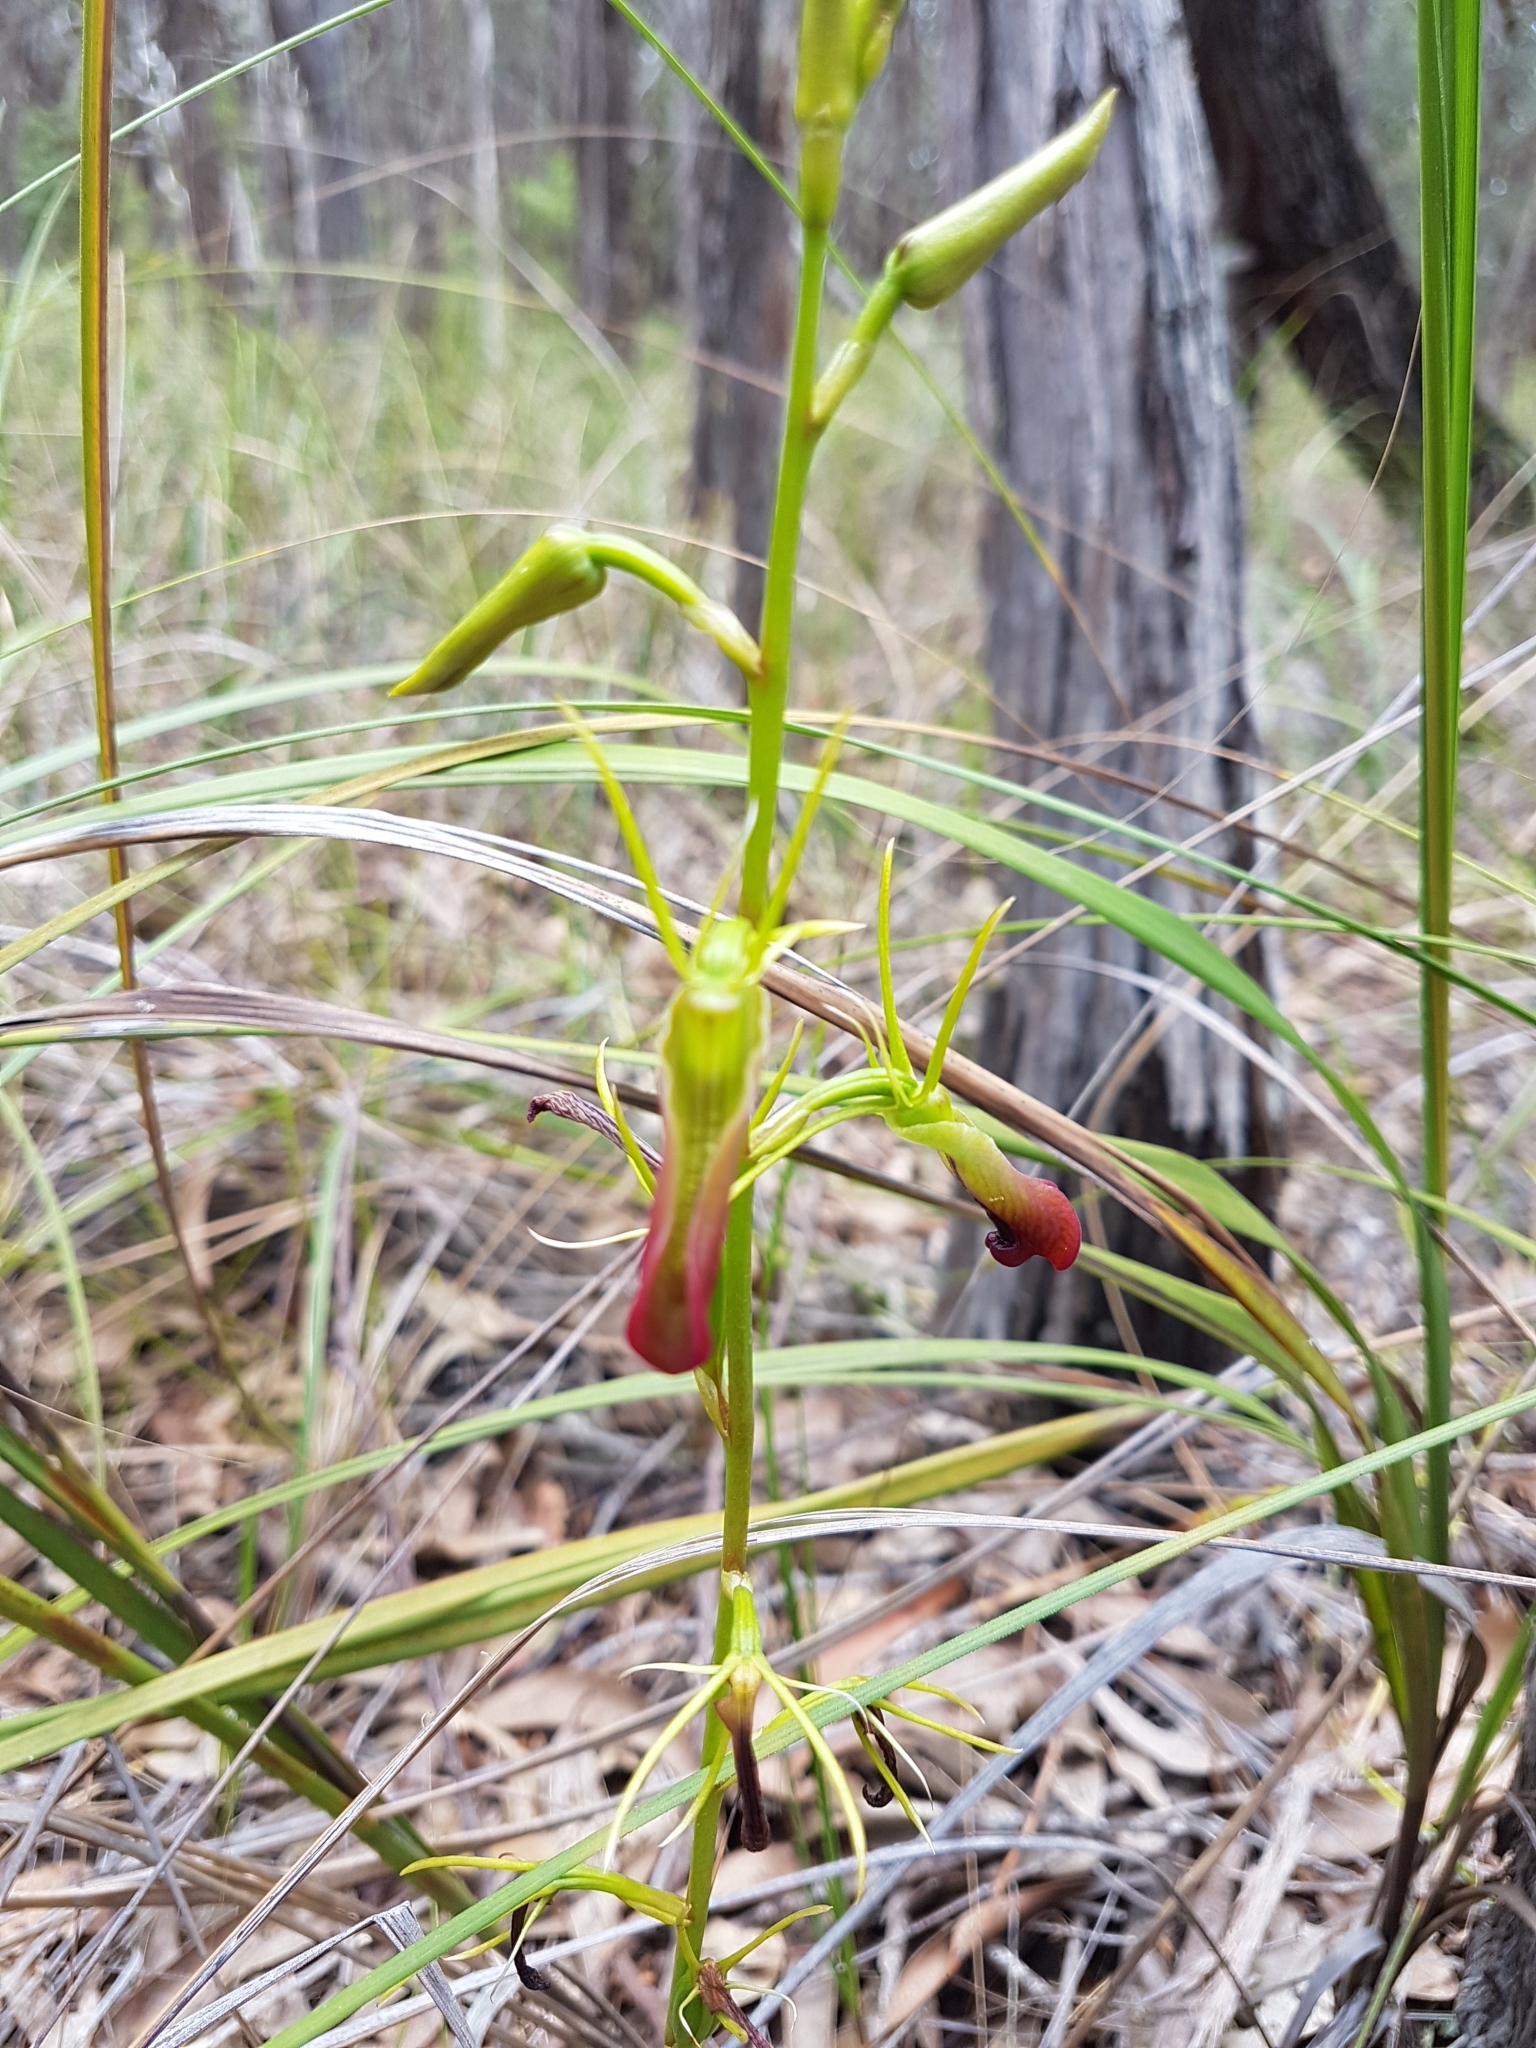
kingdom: Plantae
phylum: Tracheophyta
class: Liliopsida
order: Asparagales
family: Orchidaceae
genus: Cryptostylis
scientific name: Cryptostylis subulata
